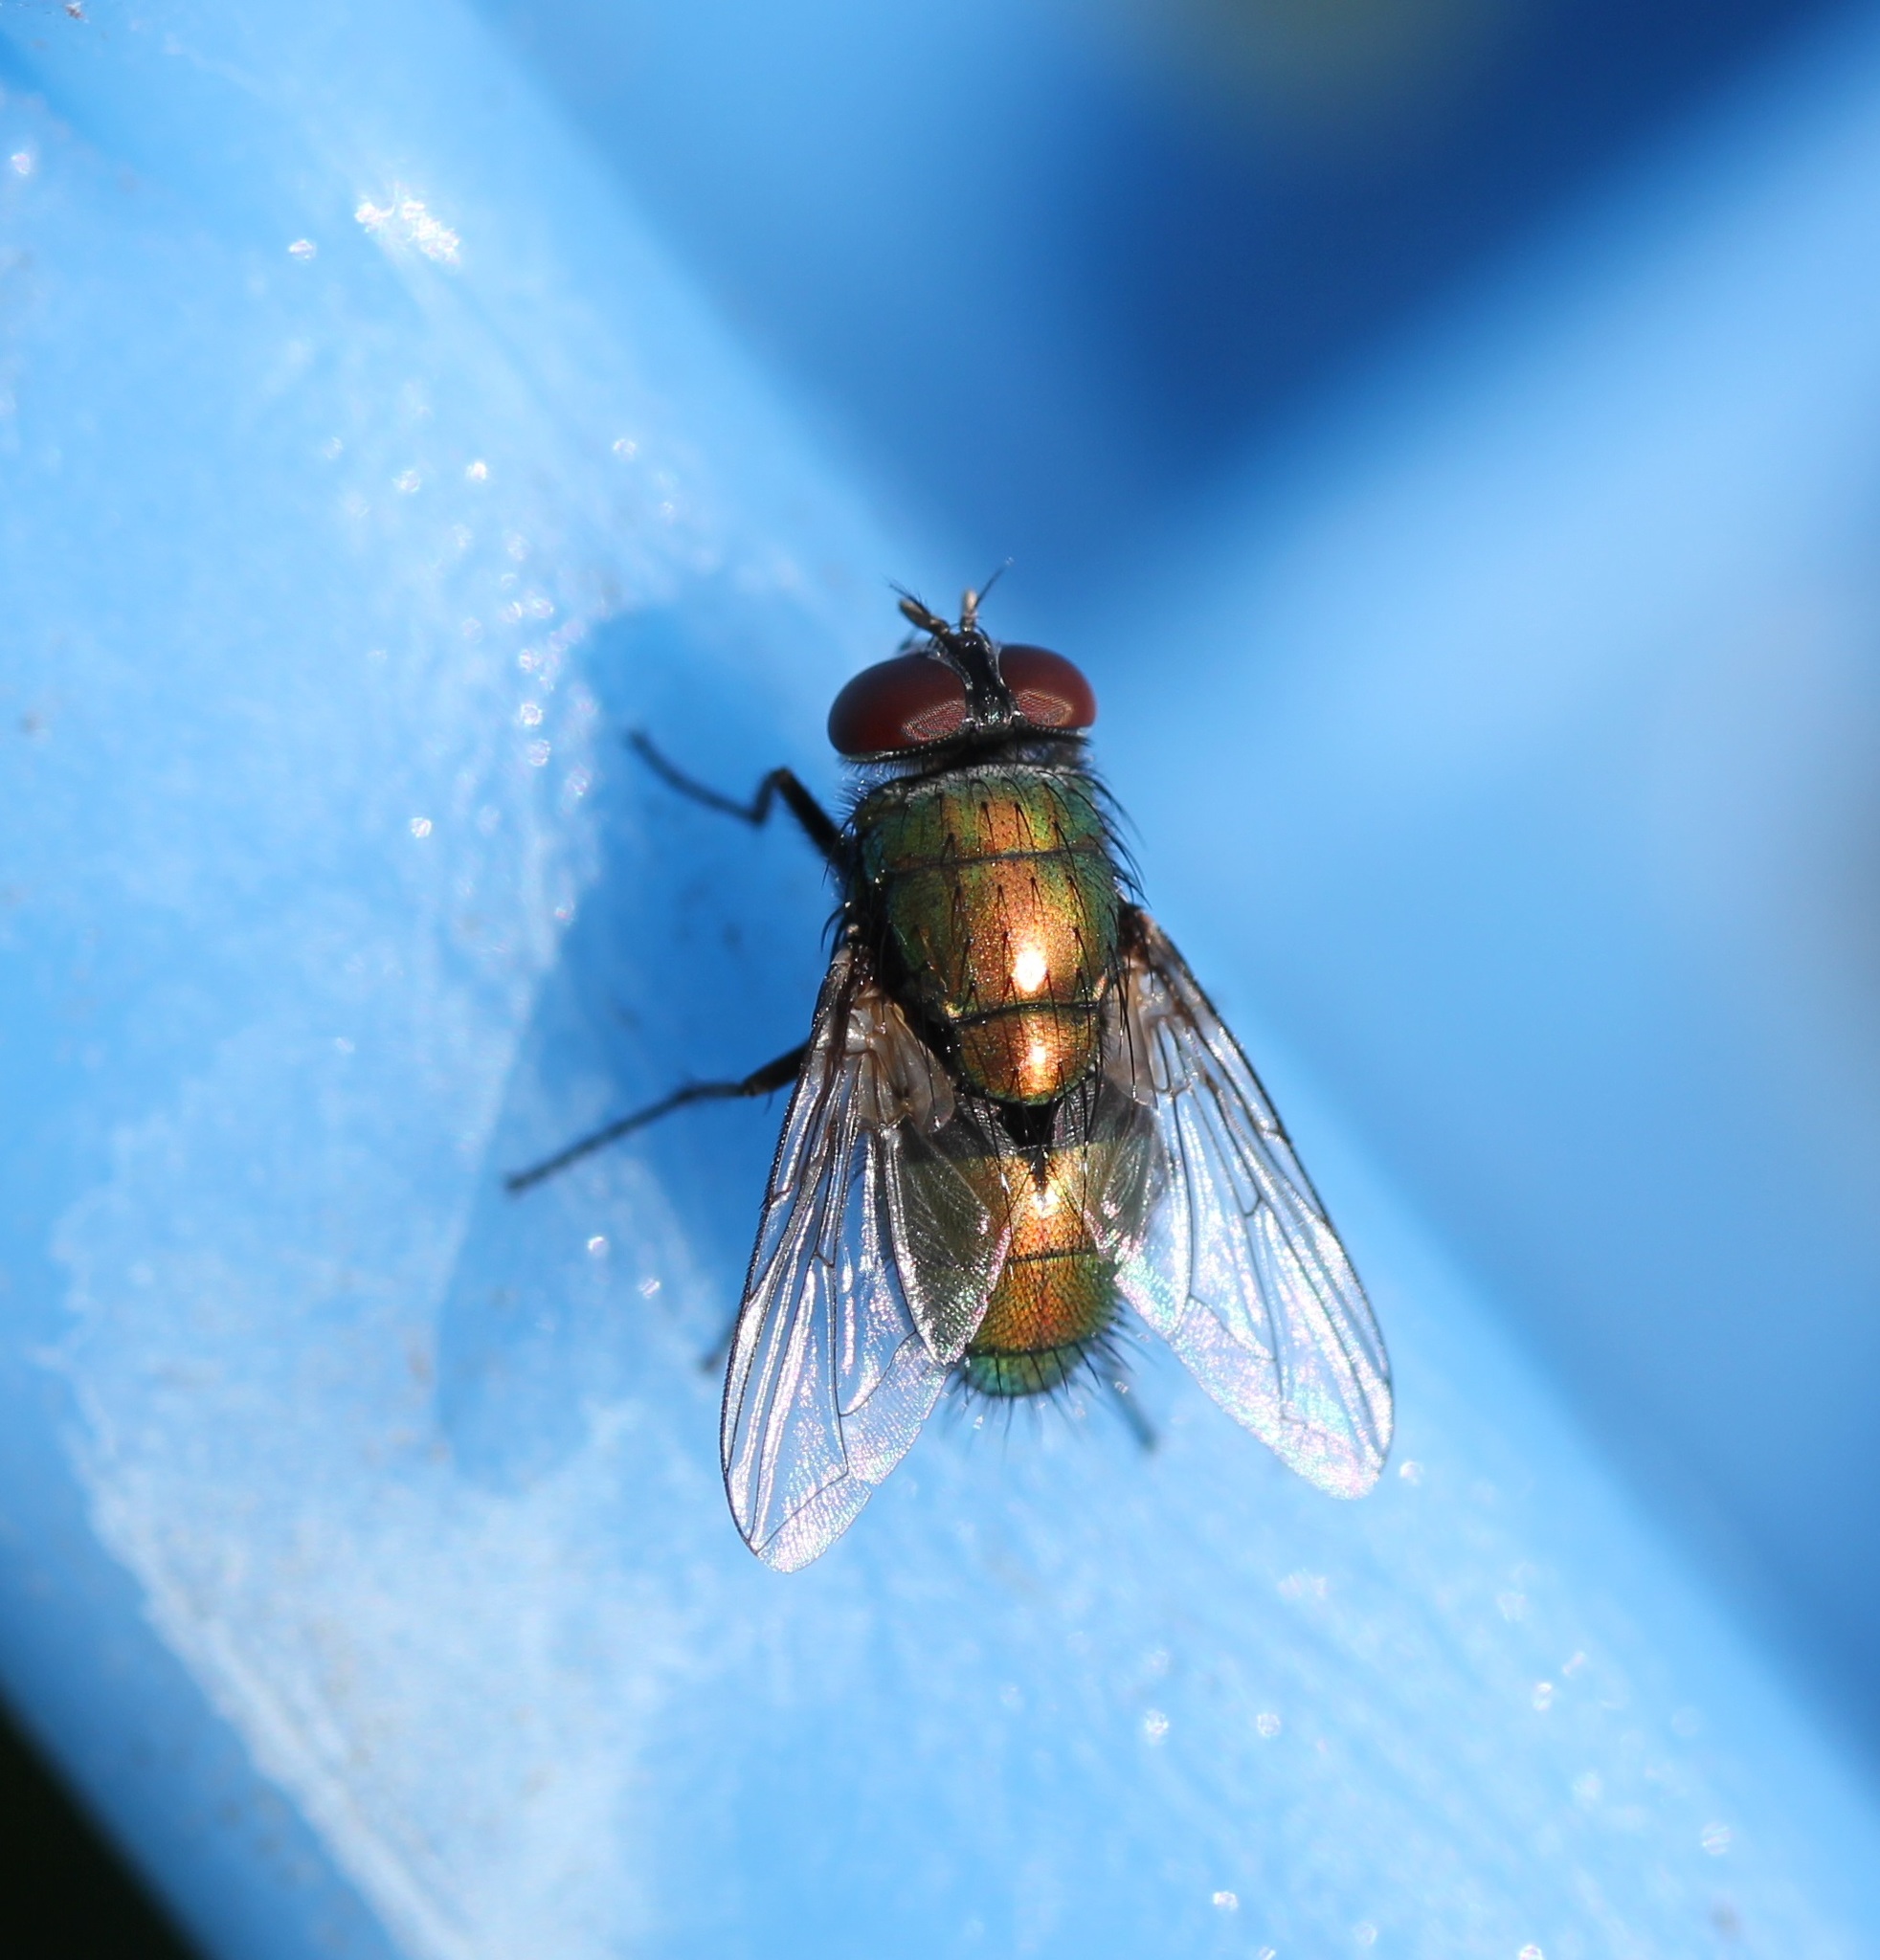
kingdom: Animalia
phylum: Arthropoda
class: Insecta
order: Diptera
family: Calliphoridae
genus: Lucilia
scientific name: Lucilia sericata
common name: Blow fly
